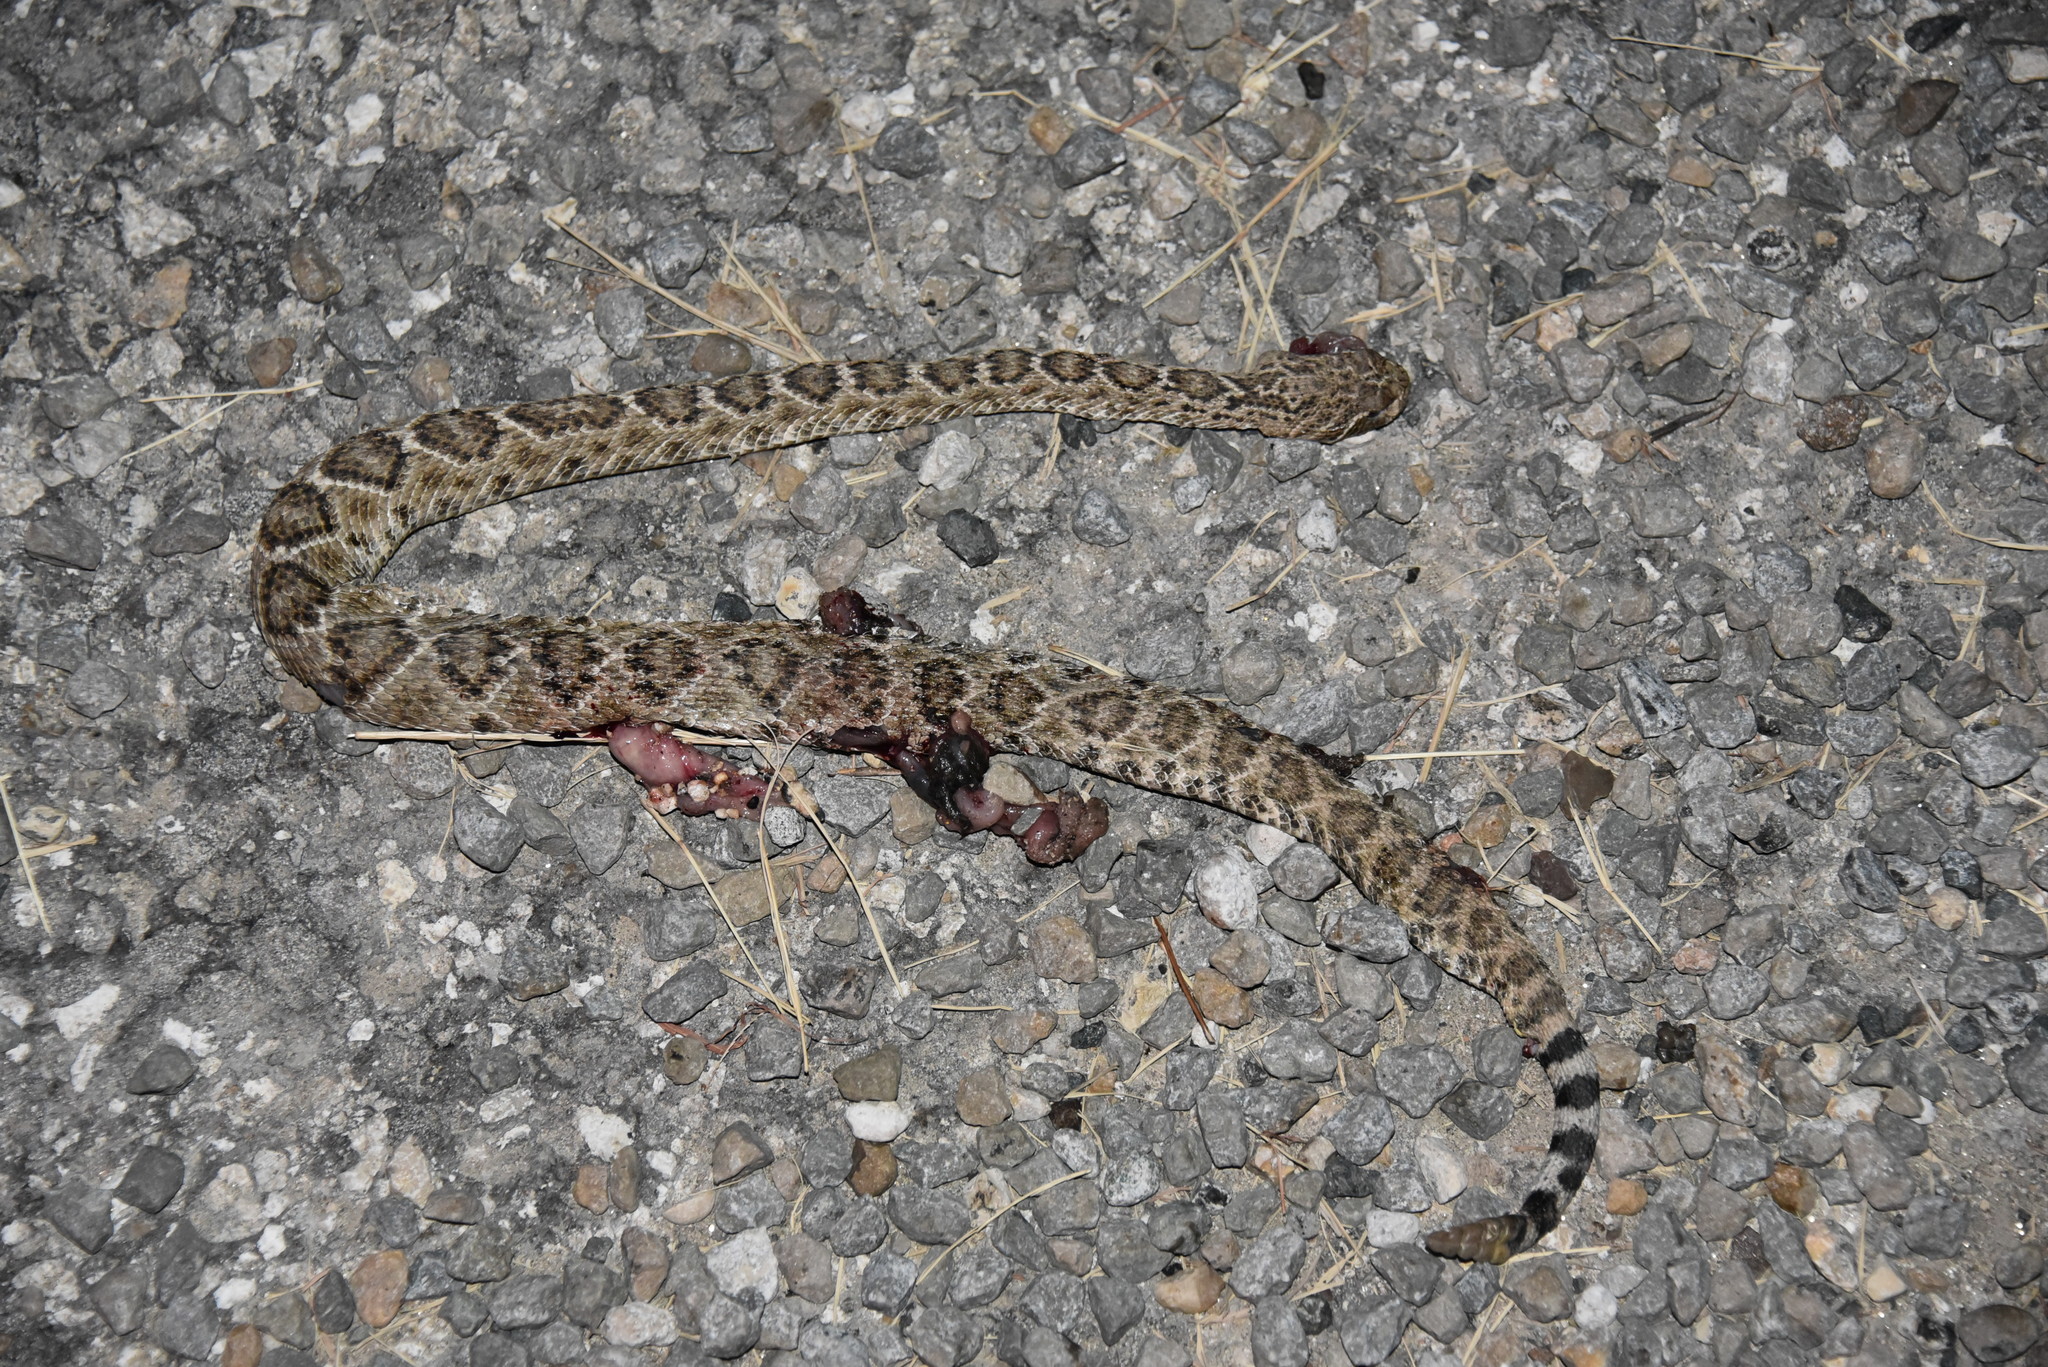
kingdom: Animalia
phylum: Chordata
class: Squamata
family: Viperidae
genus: Crotalus
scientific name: Crotalus atrox
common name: Western diamond-backed rattlesnake
